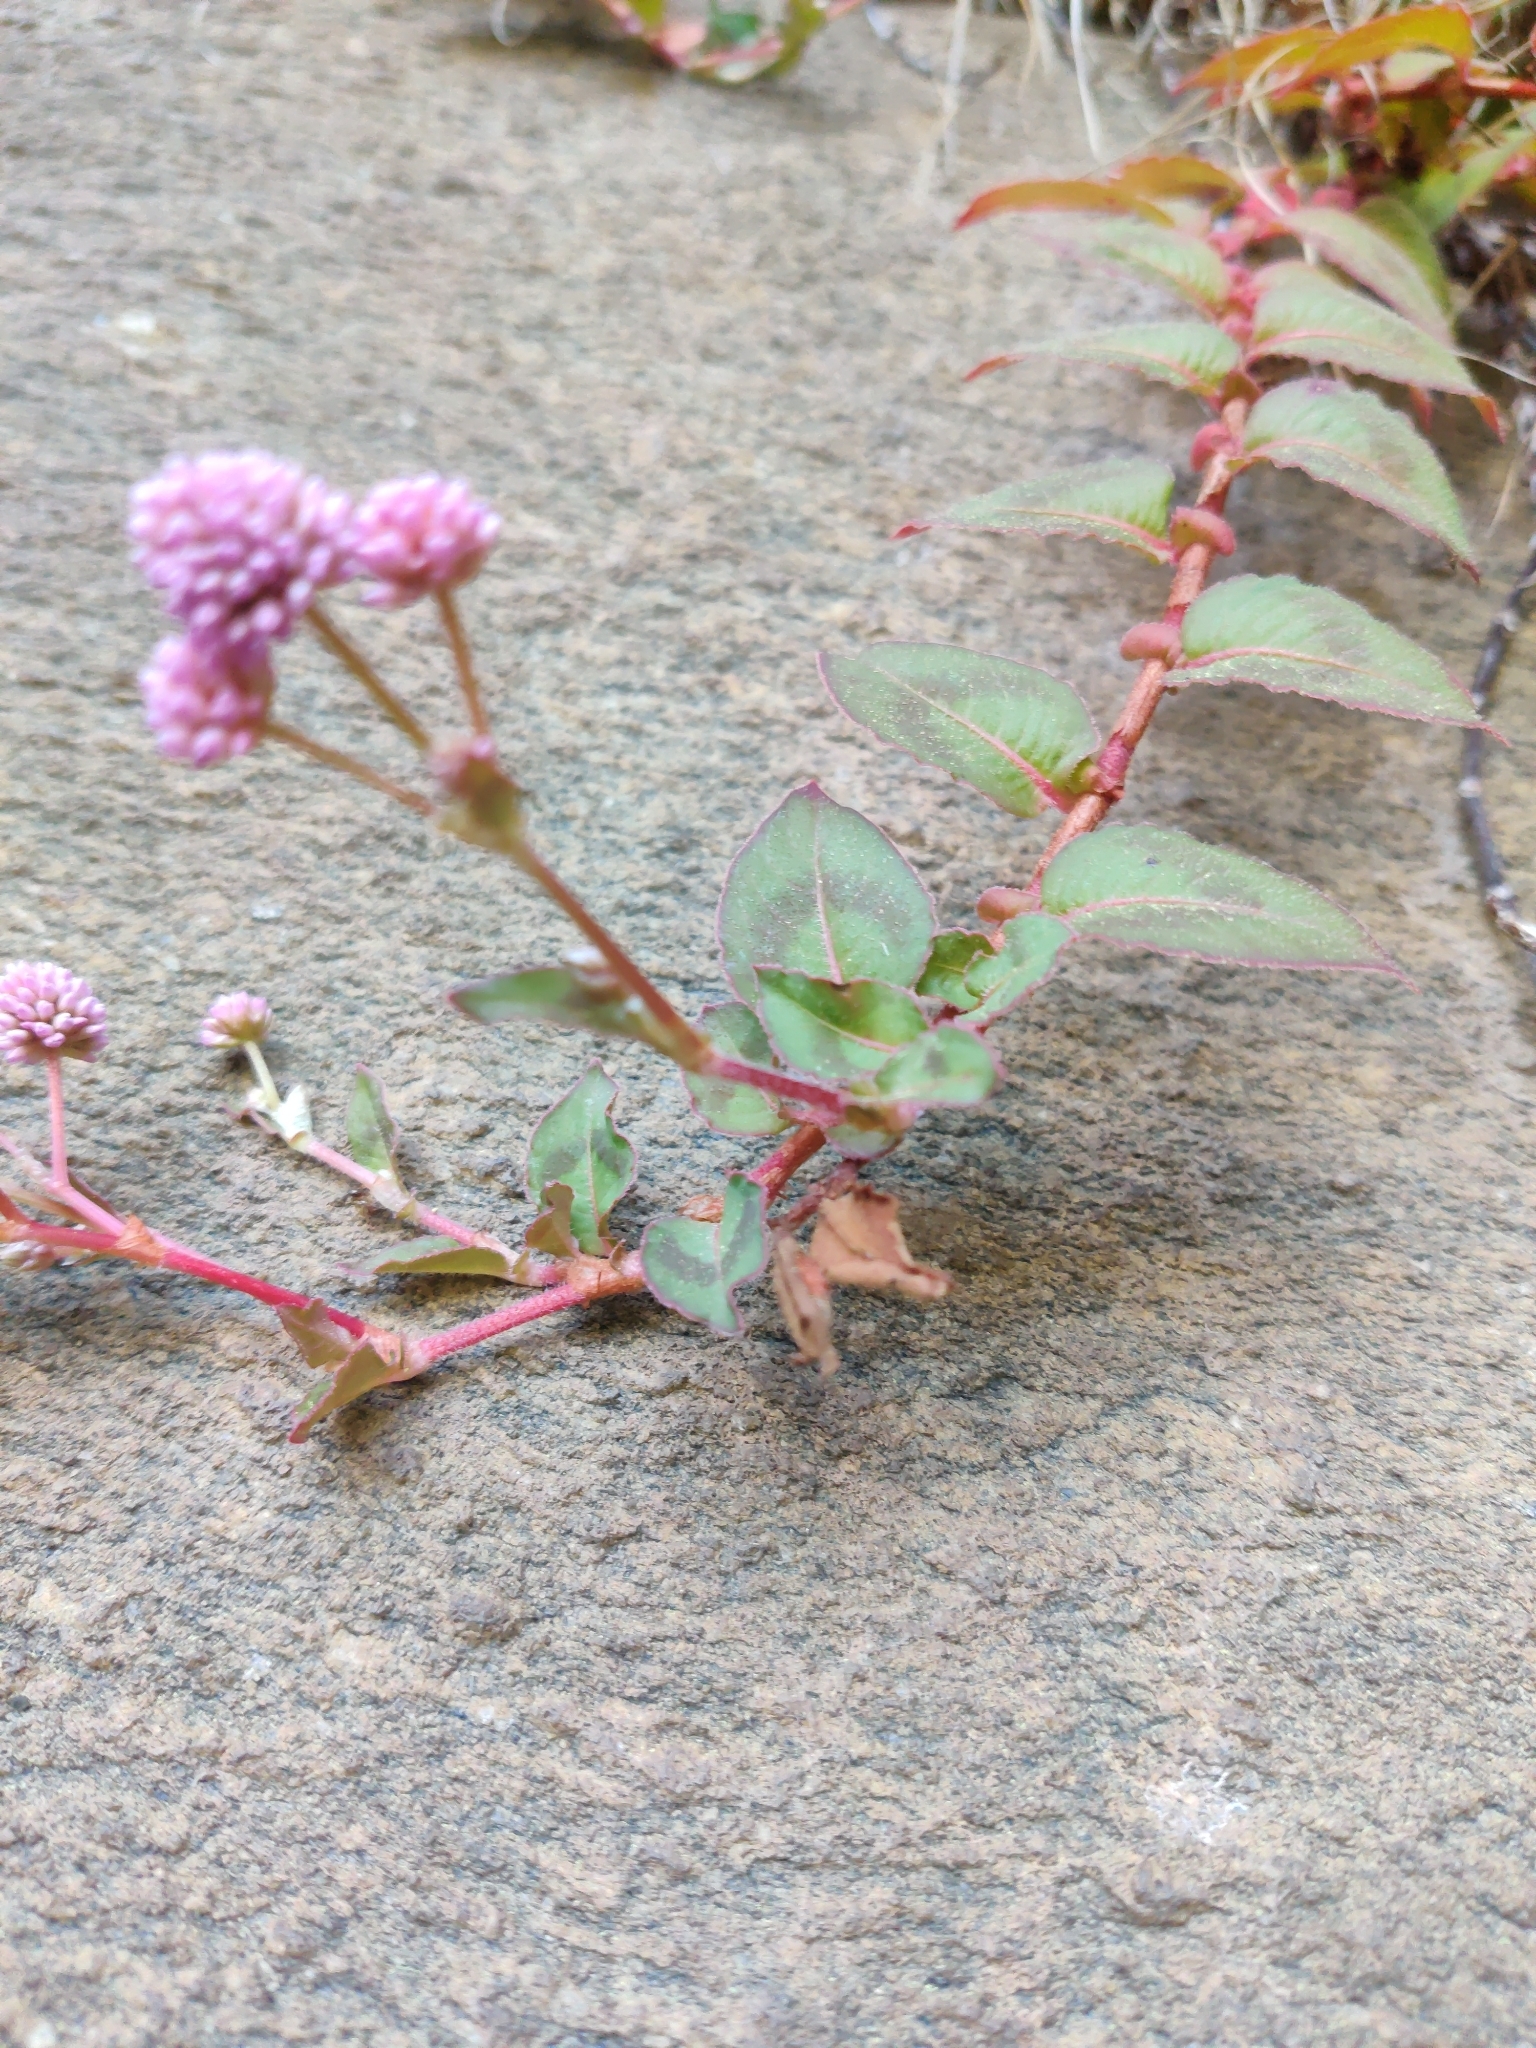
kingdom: Plantae
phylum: Tracheophyta
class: Magnoliopsida
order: Caryophyllales
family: Polygonaceae
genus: Persicaria
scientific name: Persicaria capitata
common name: Pinkhead smartweed
